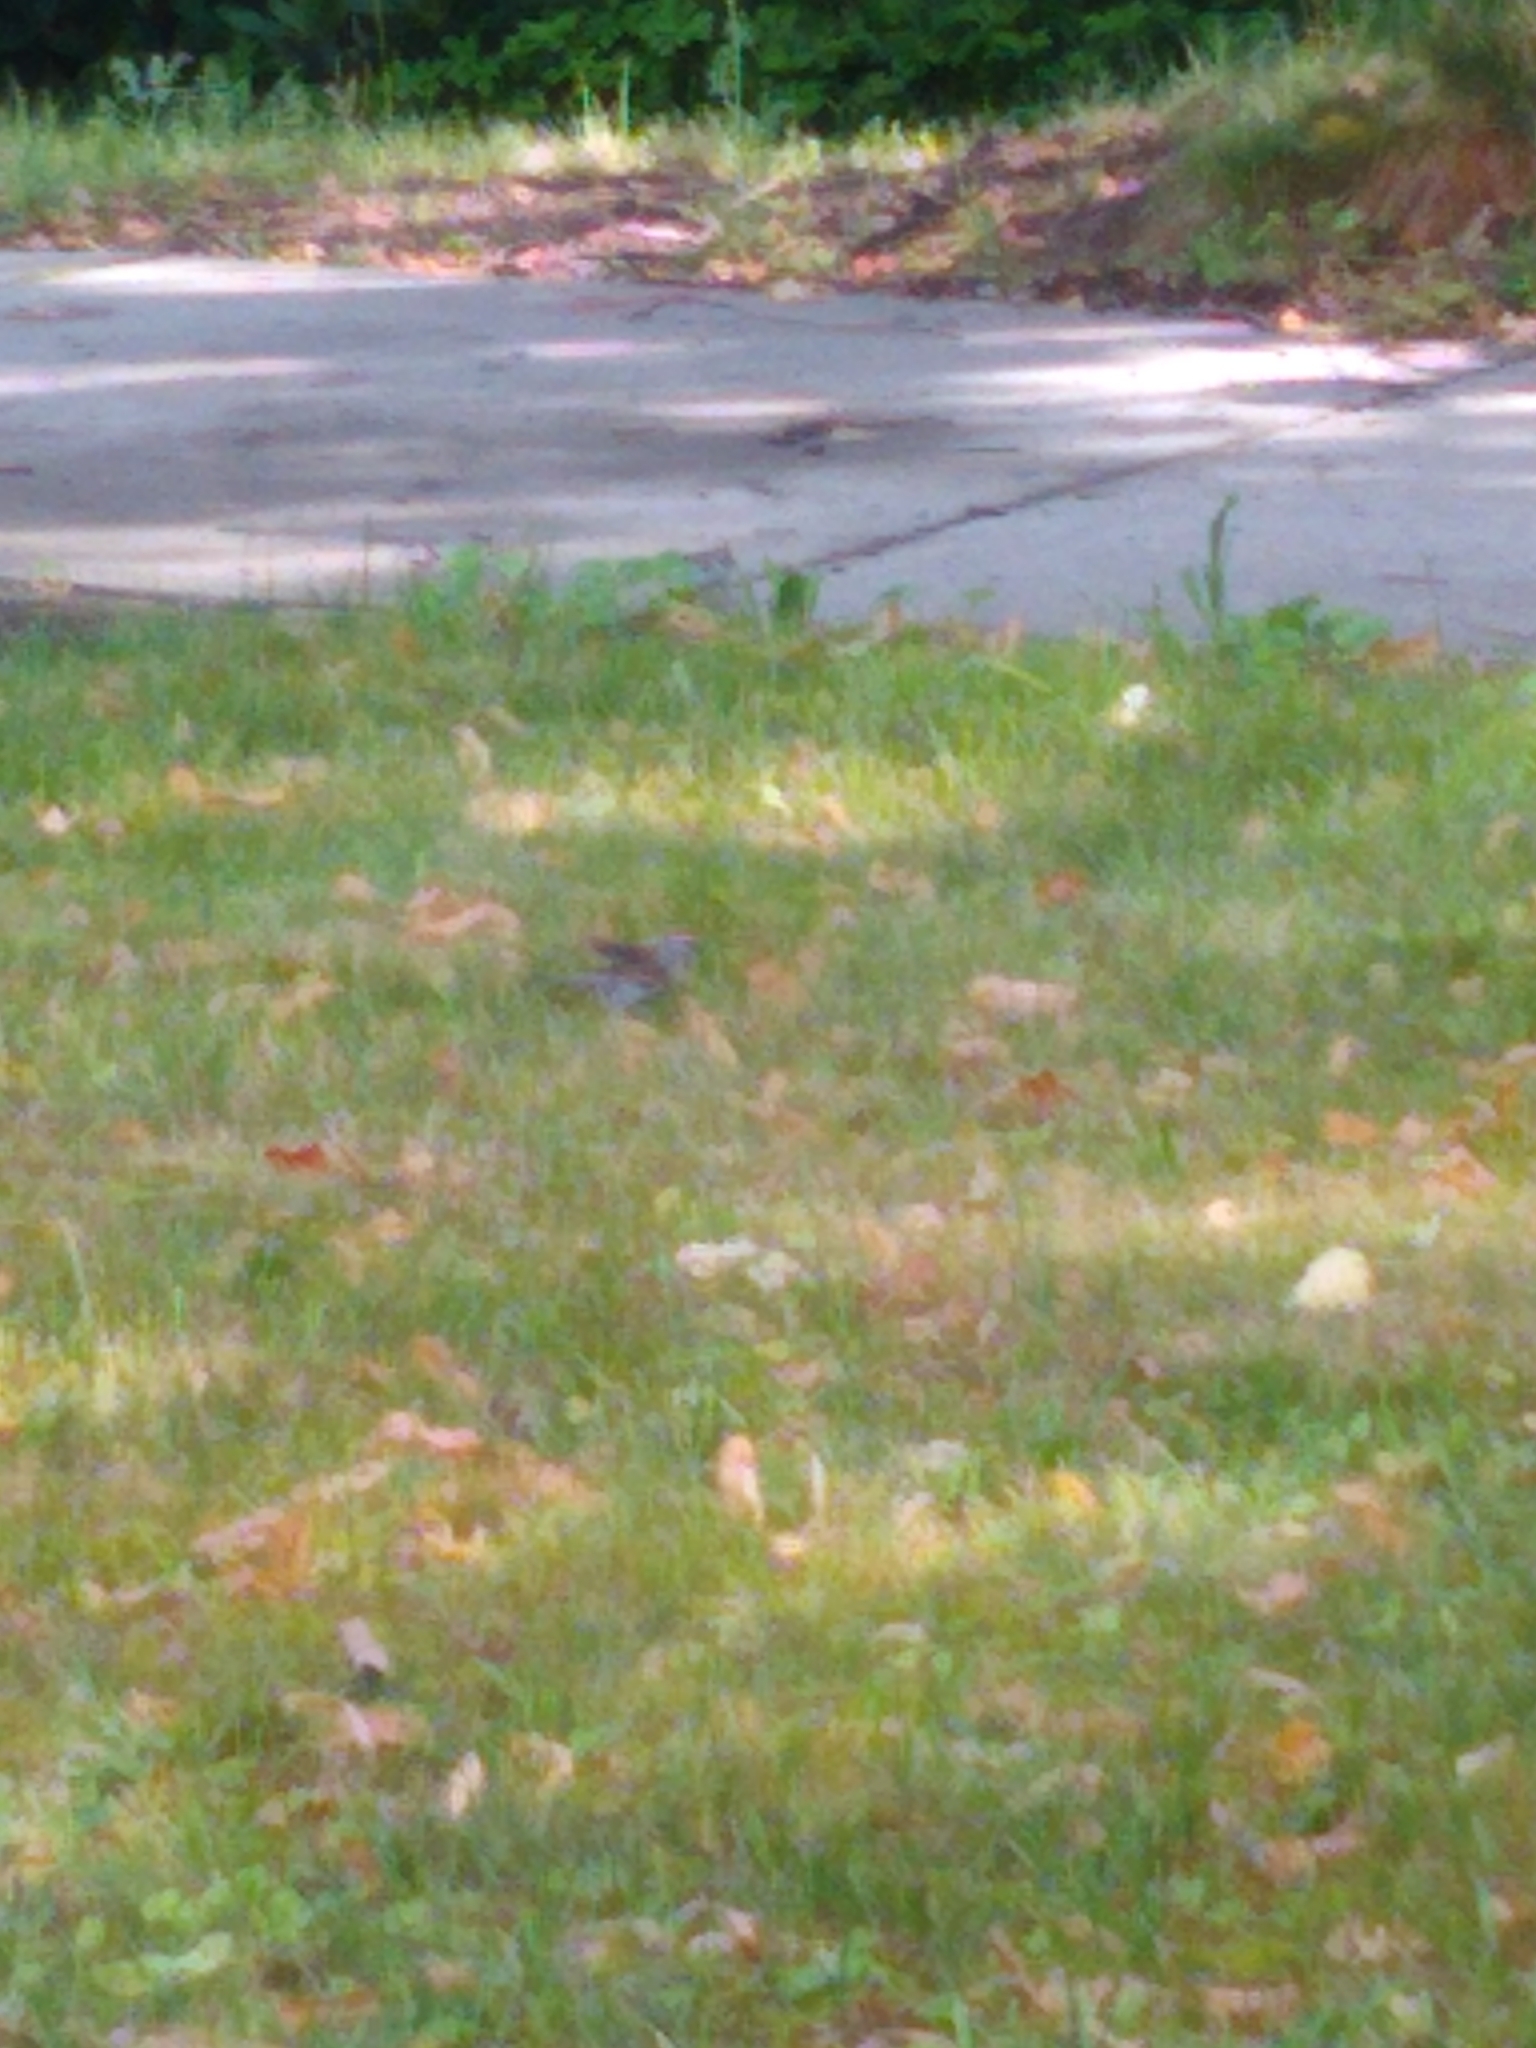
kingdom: Animalia
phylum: Chordata
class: Aves
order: Passeriformes
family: Passerellidae
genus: Spizella
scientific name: Spizella passerina
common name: Chipping sparrow
